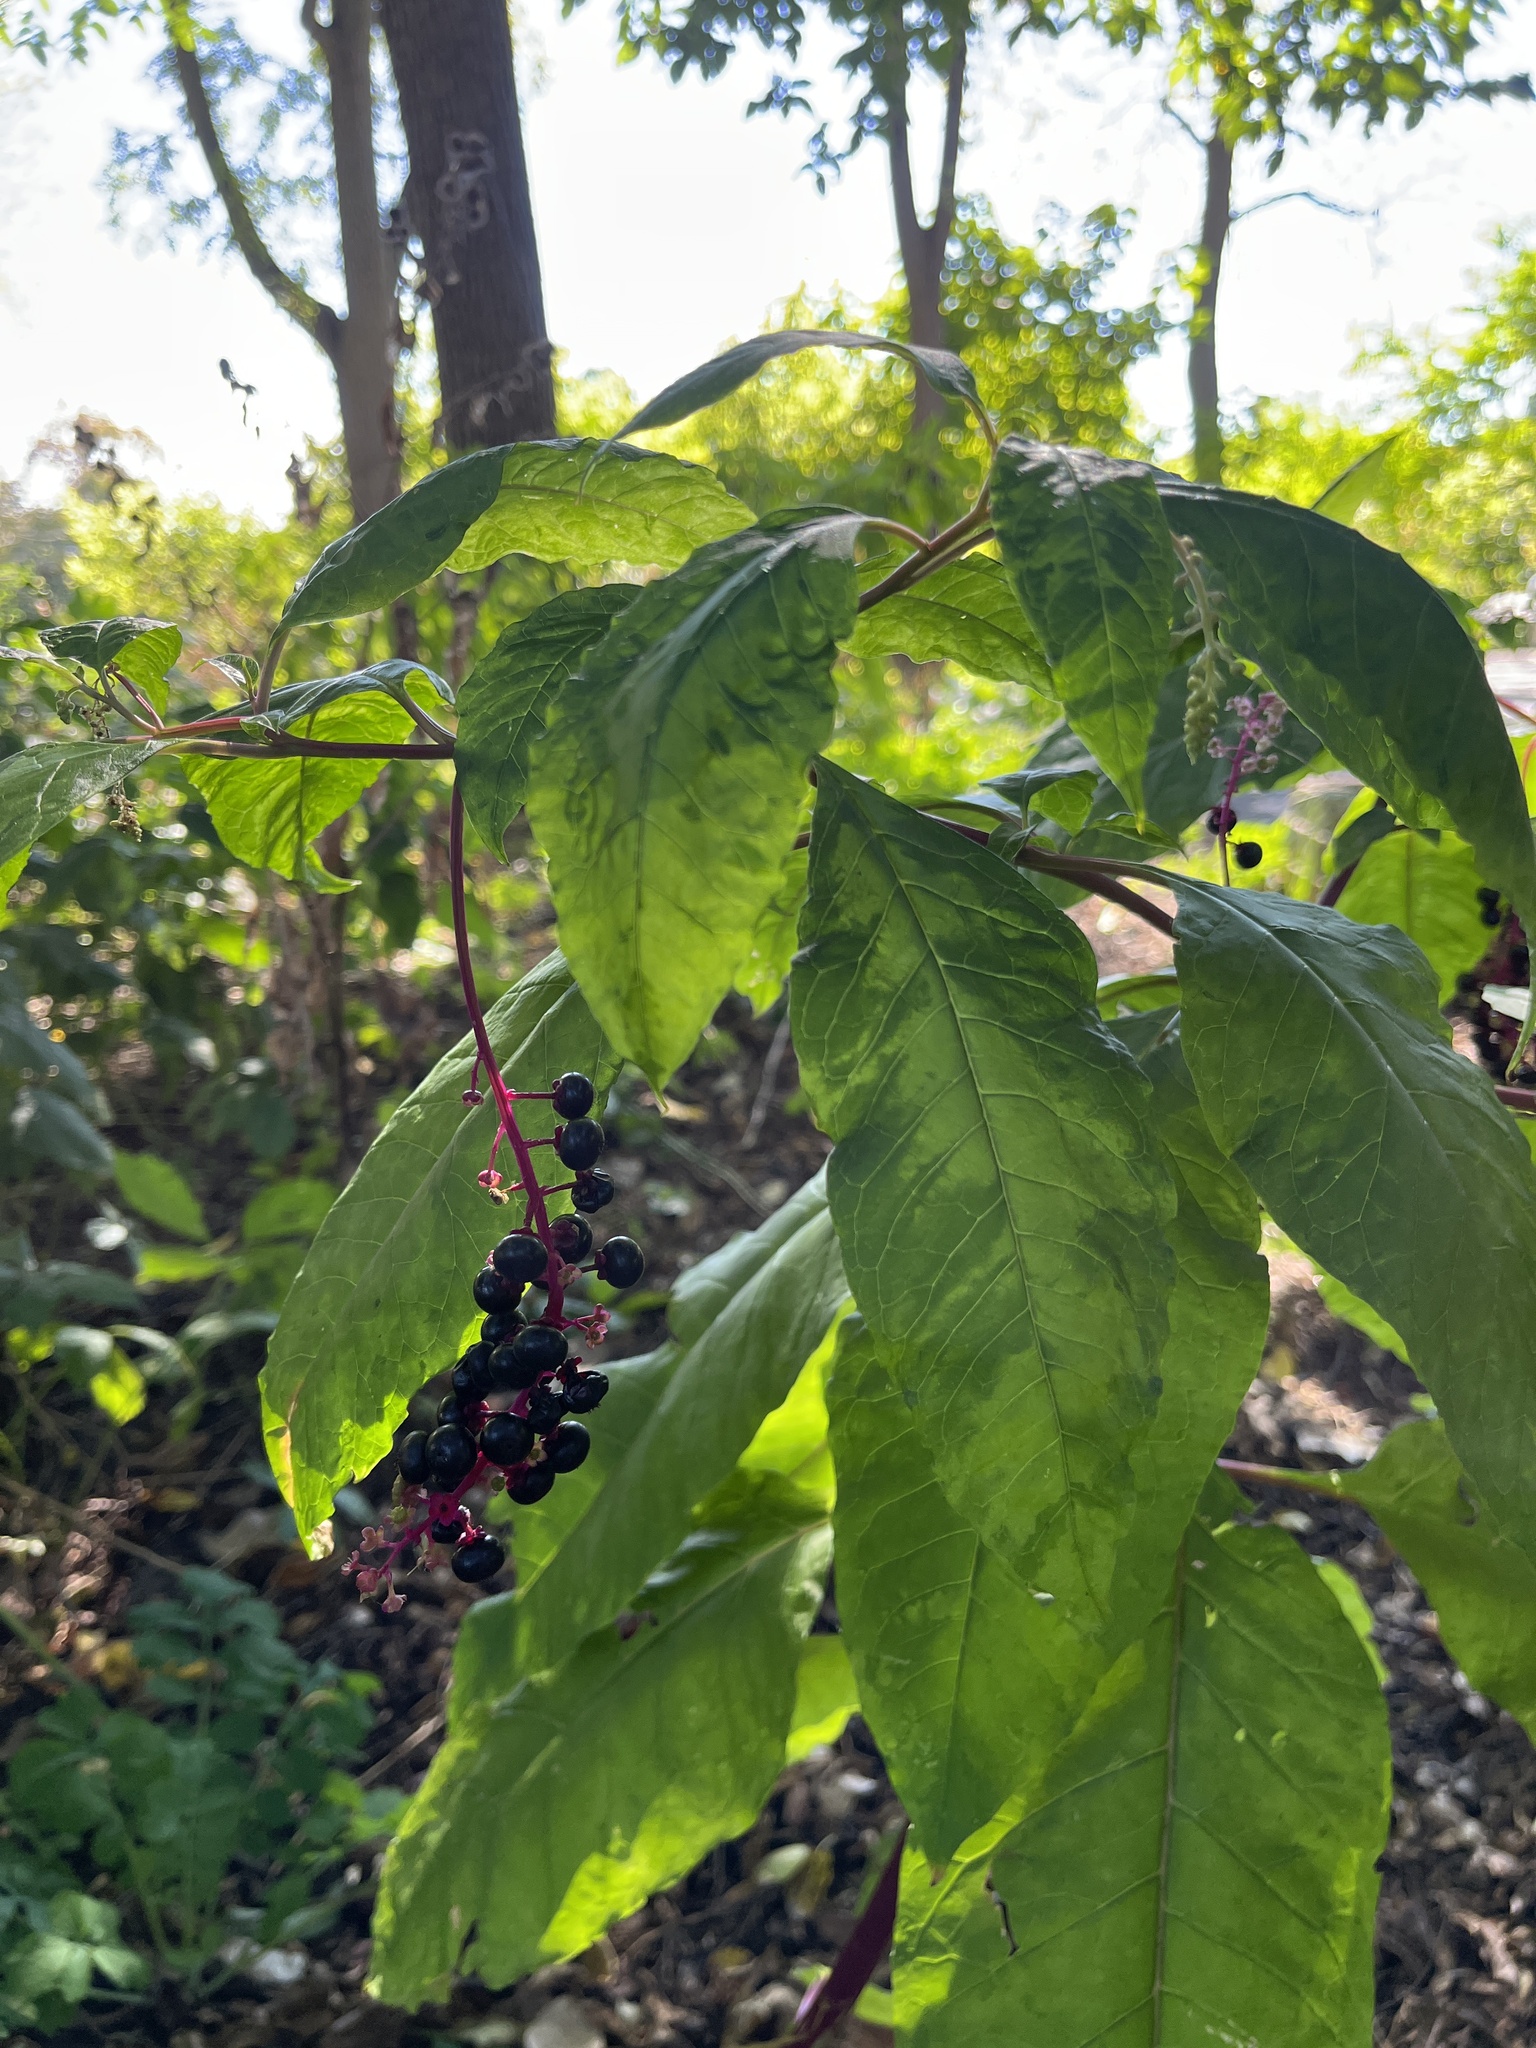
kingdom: Plantae
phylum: Tracheophyta
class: Magnoliopsida
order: Caryophyllales
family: Phytolaccaceae
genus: Phytolacca
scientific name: Phytolacca americana
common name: American pokeweed
